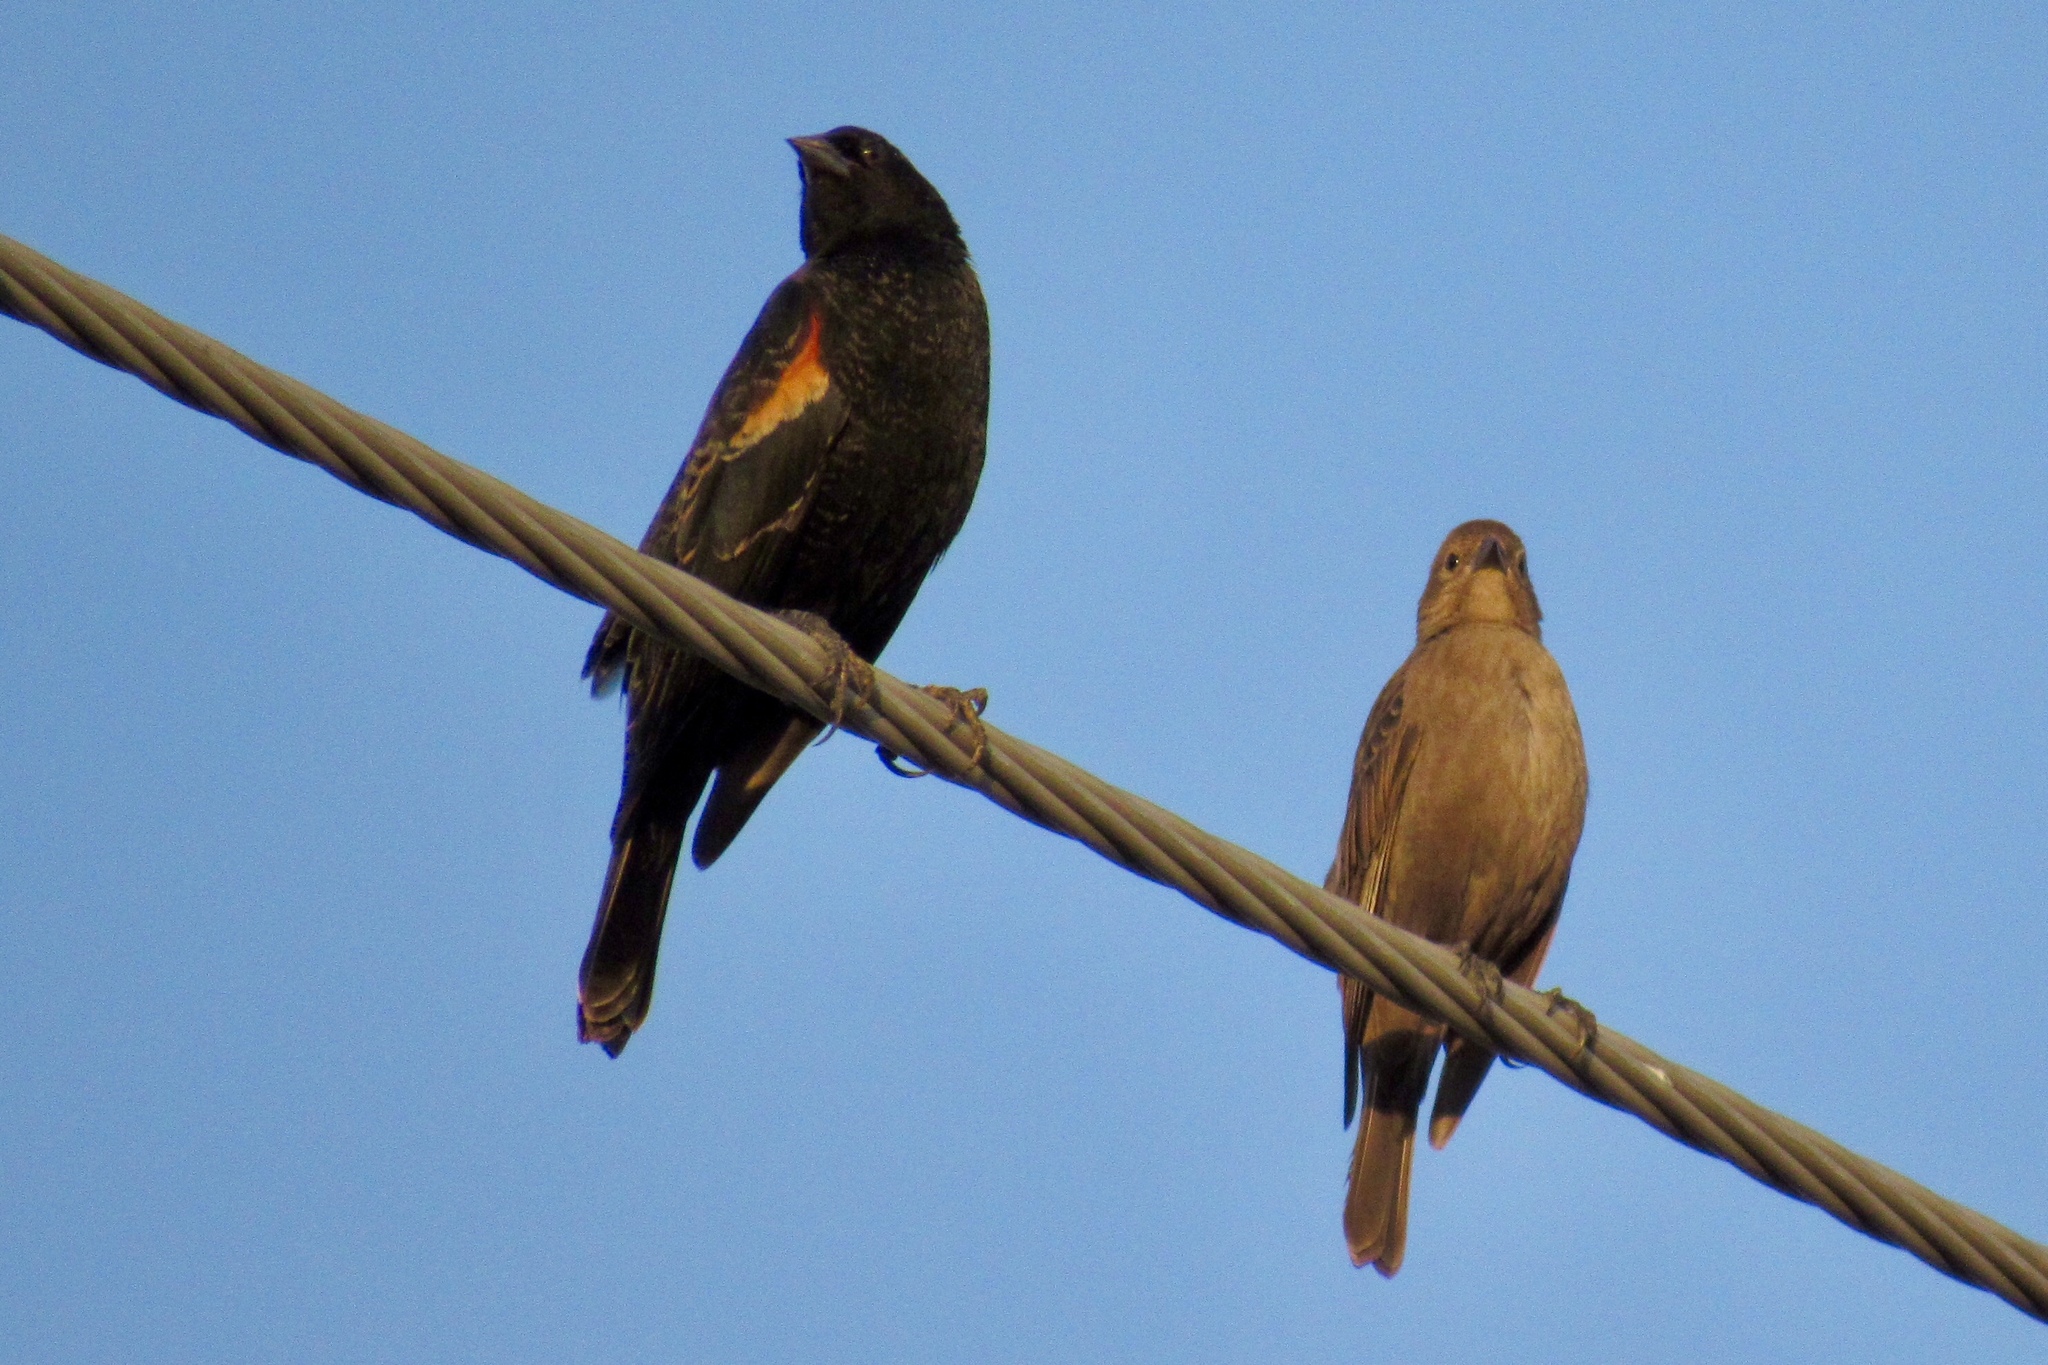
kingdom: Animalia
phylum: Chordata
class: Aves
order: Passeriformes
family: Icteridae
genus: Molothrus
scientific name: Molothrus ater
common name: Brown-headed cowbird
